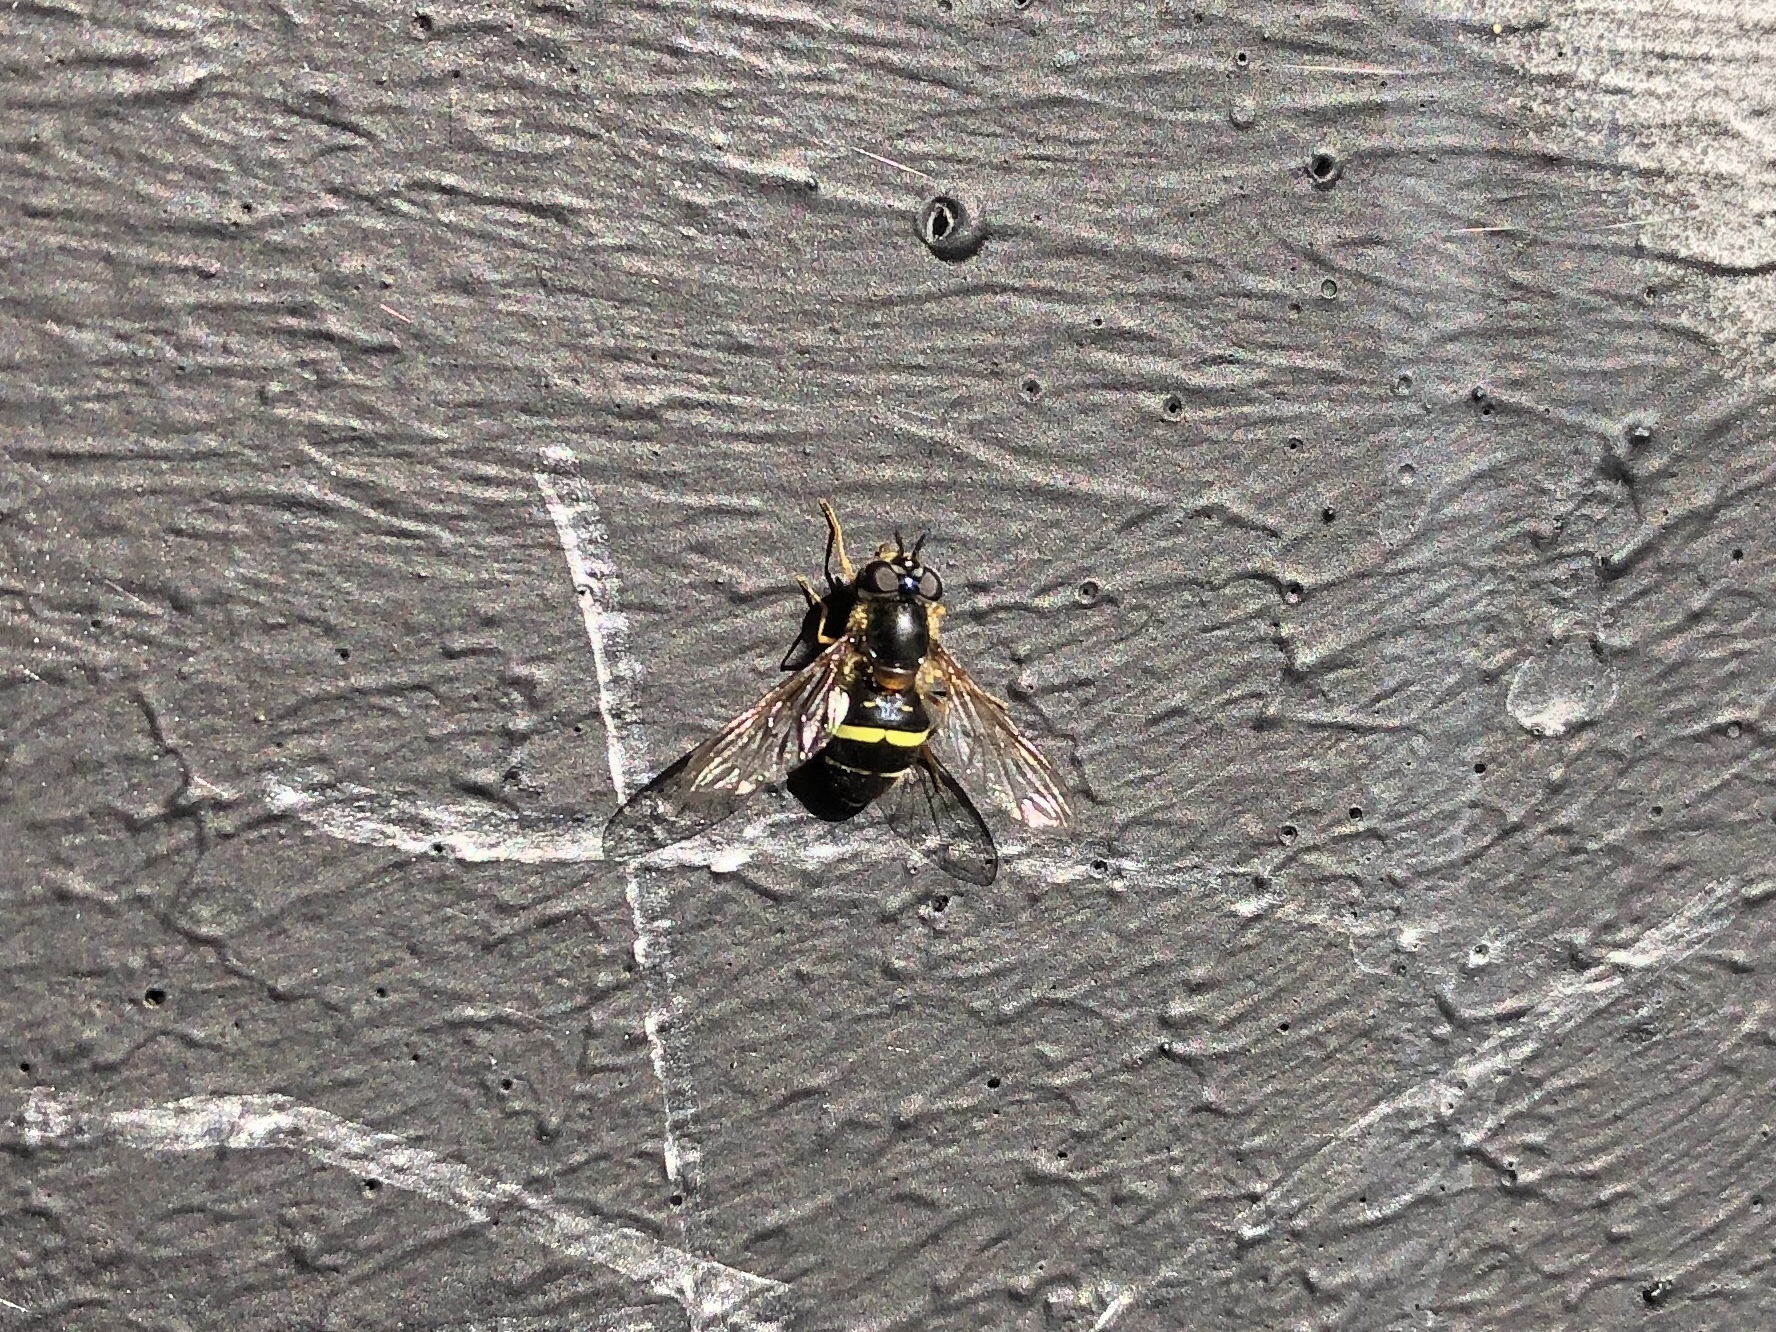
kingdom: Animalia
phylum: Arthropoda
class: Insecta
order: Diptera
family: Syrphidae
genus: Dasysyrphus
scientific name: Dasysyrphus tricinctus
